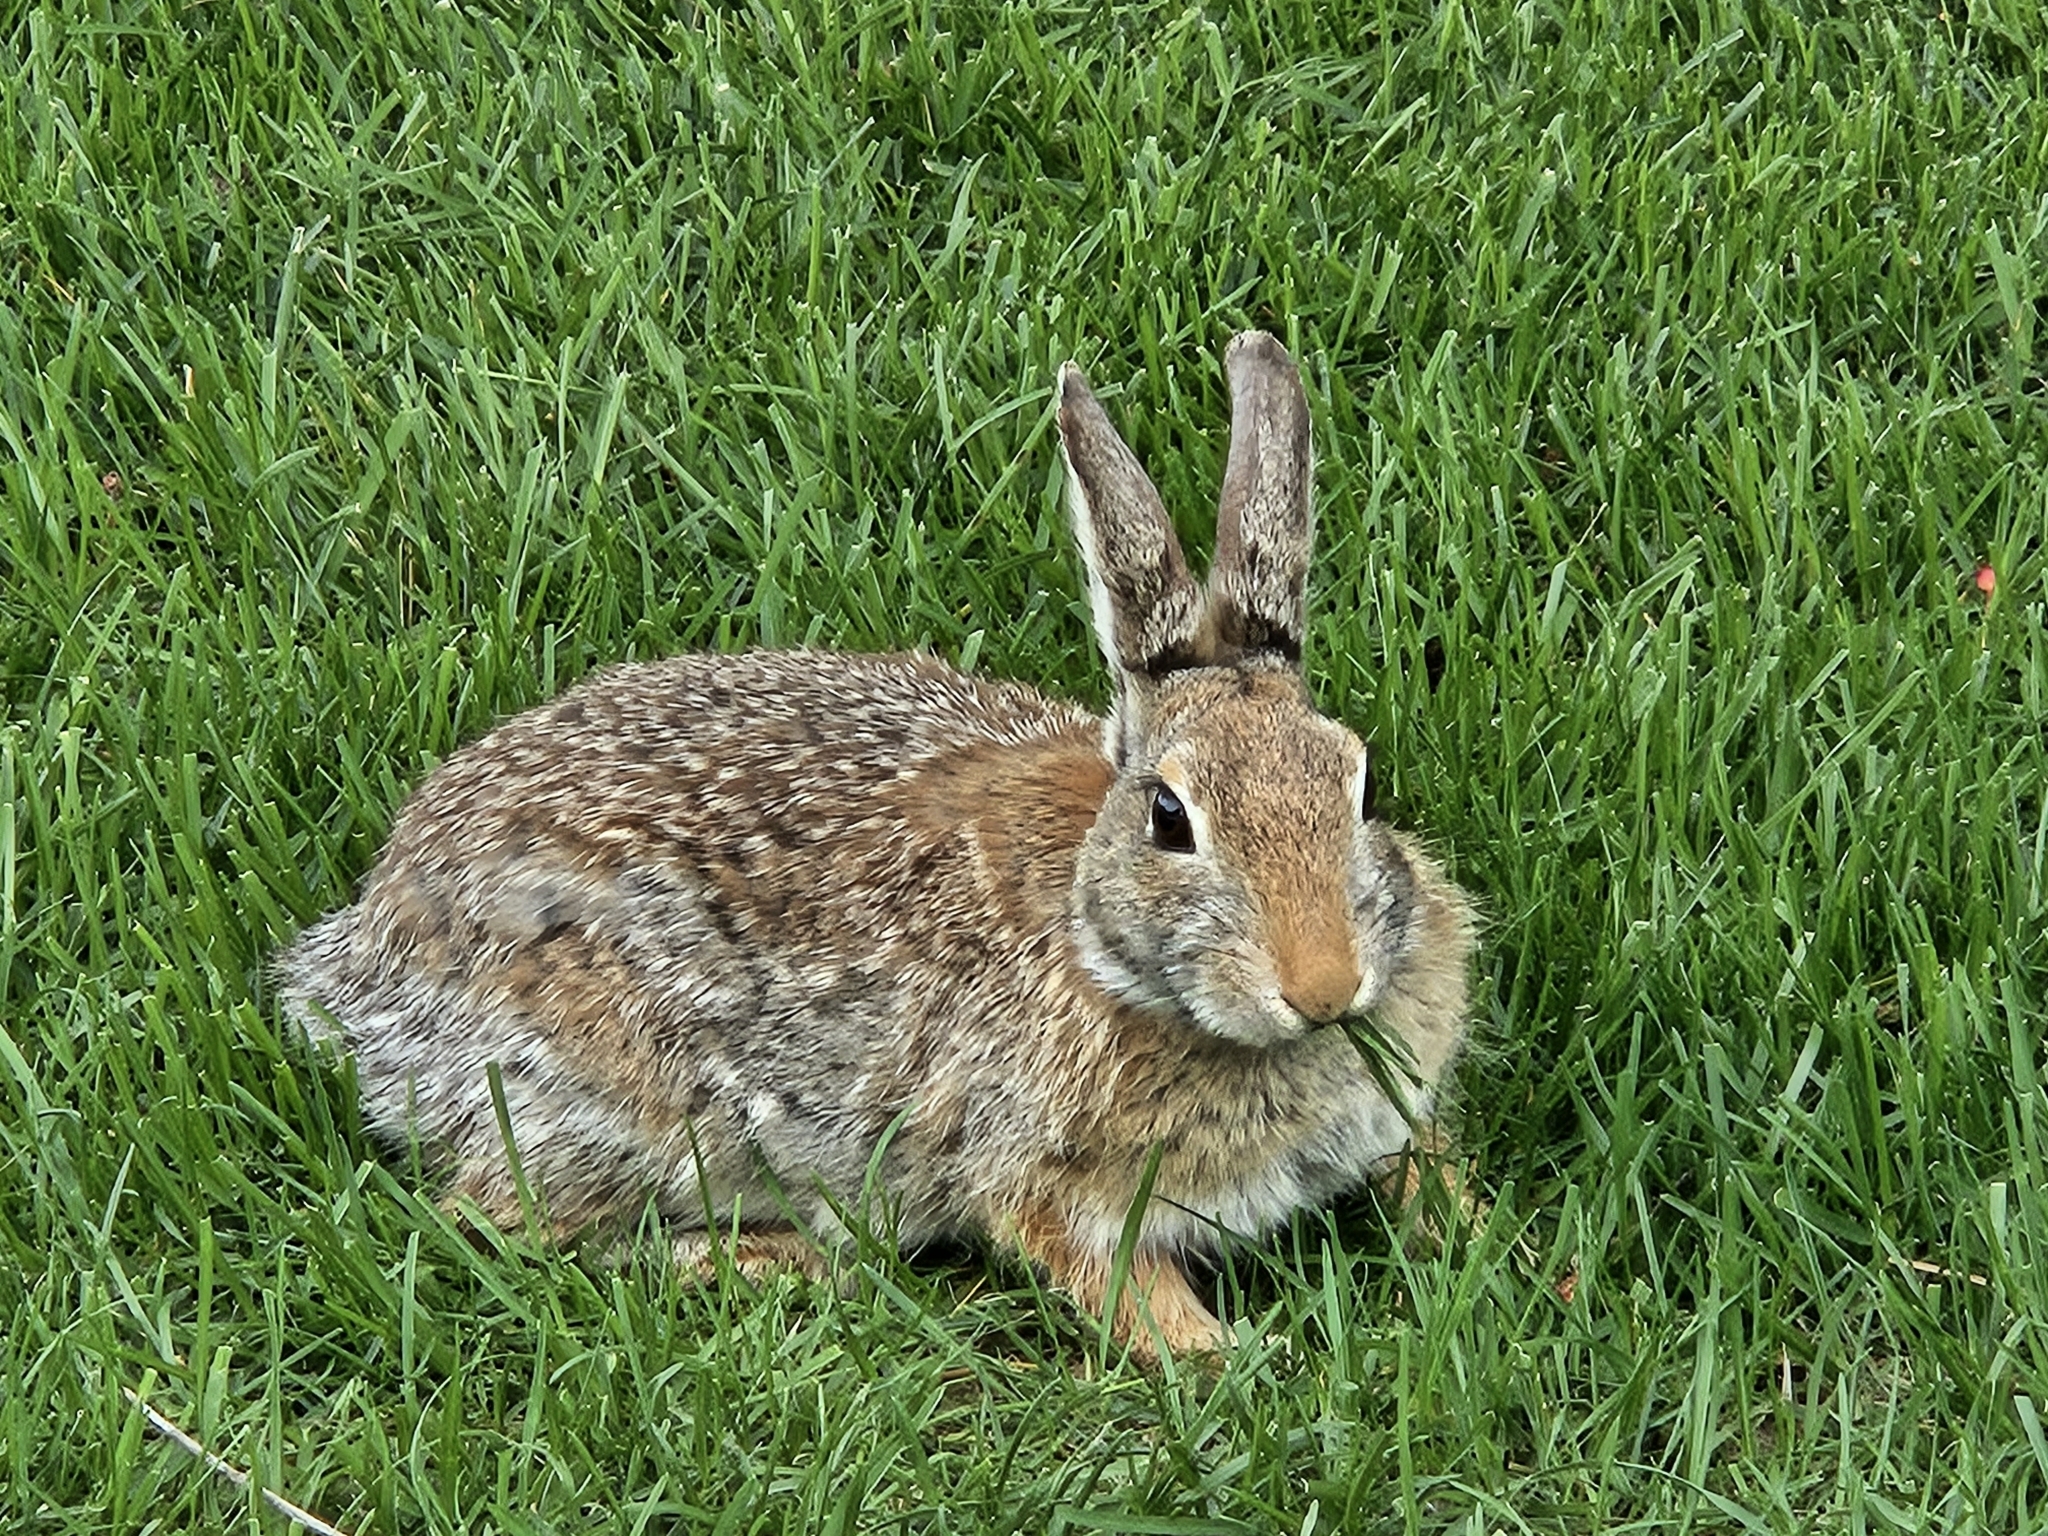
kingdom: Animalia
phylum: Chordata
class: Mammalia
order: Lagomorpha
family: Leporidae
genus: Sylvilagus
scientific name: Sylvilagus nuttallii
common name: Mountain cottontail
